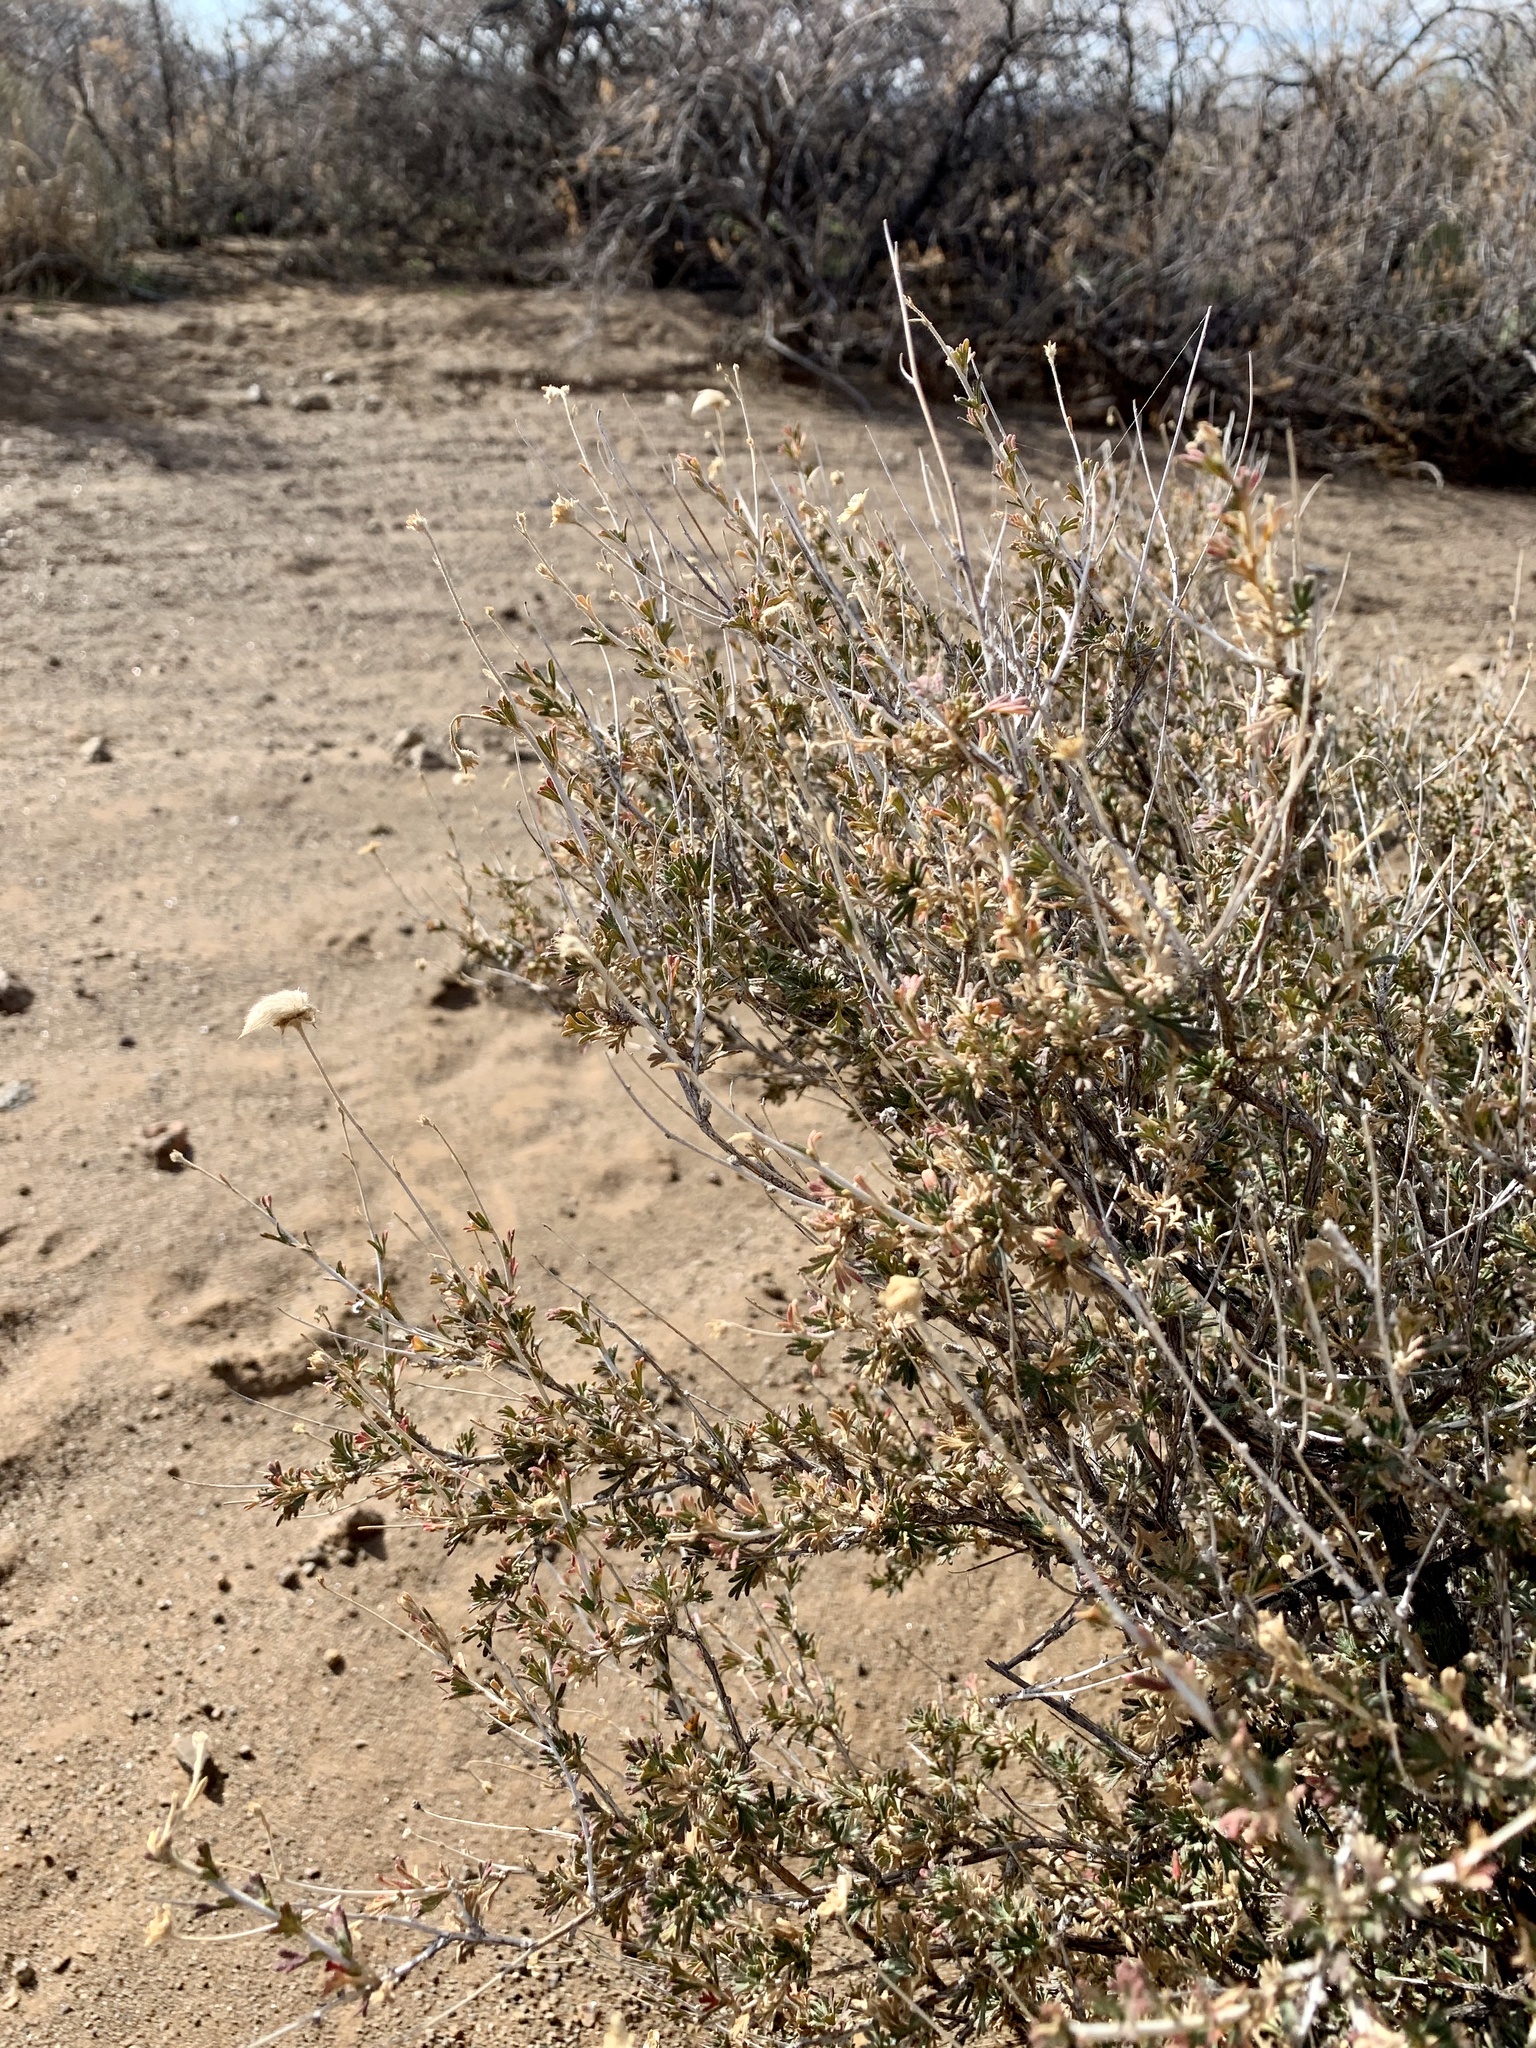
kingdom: Plantae
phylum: Tracheophyta
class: Magnoliopsida
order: Rosales
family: Rosaceae
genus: Fallugia
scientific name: Fallugia paradoxa
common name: Apache-plume
